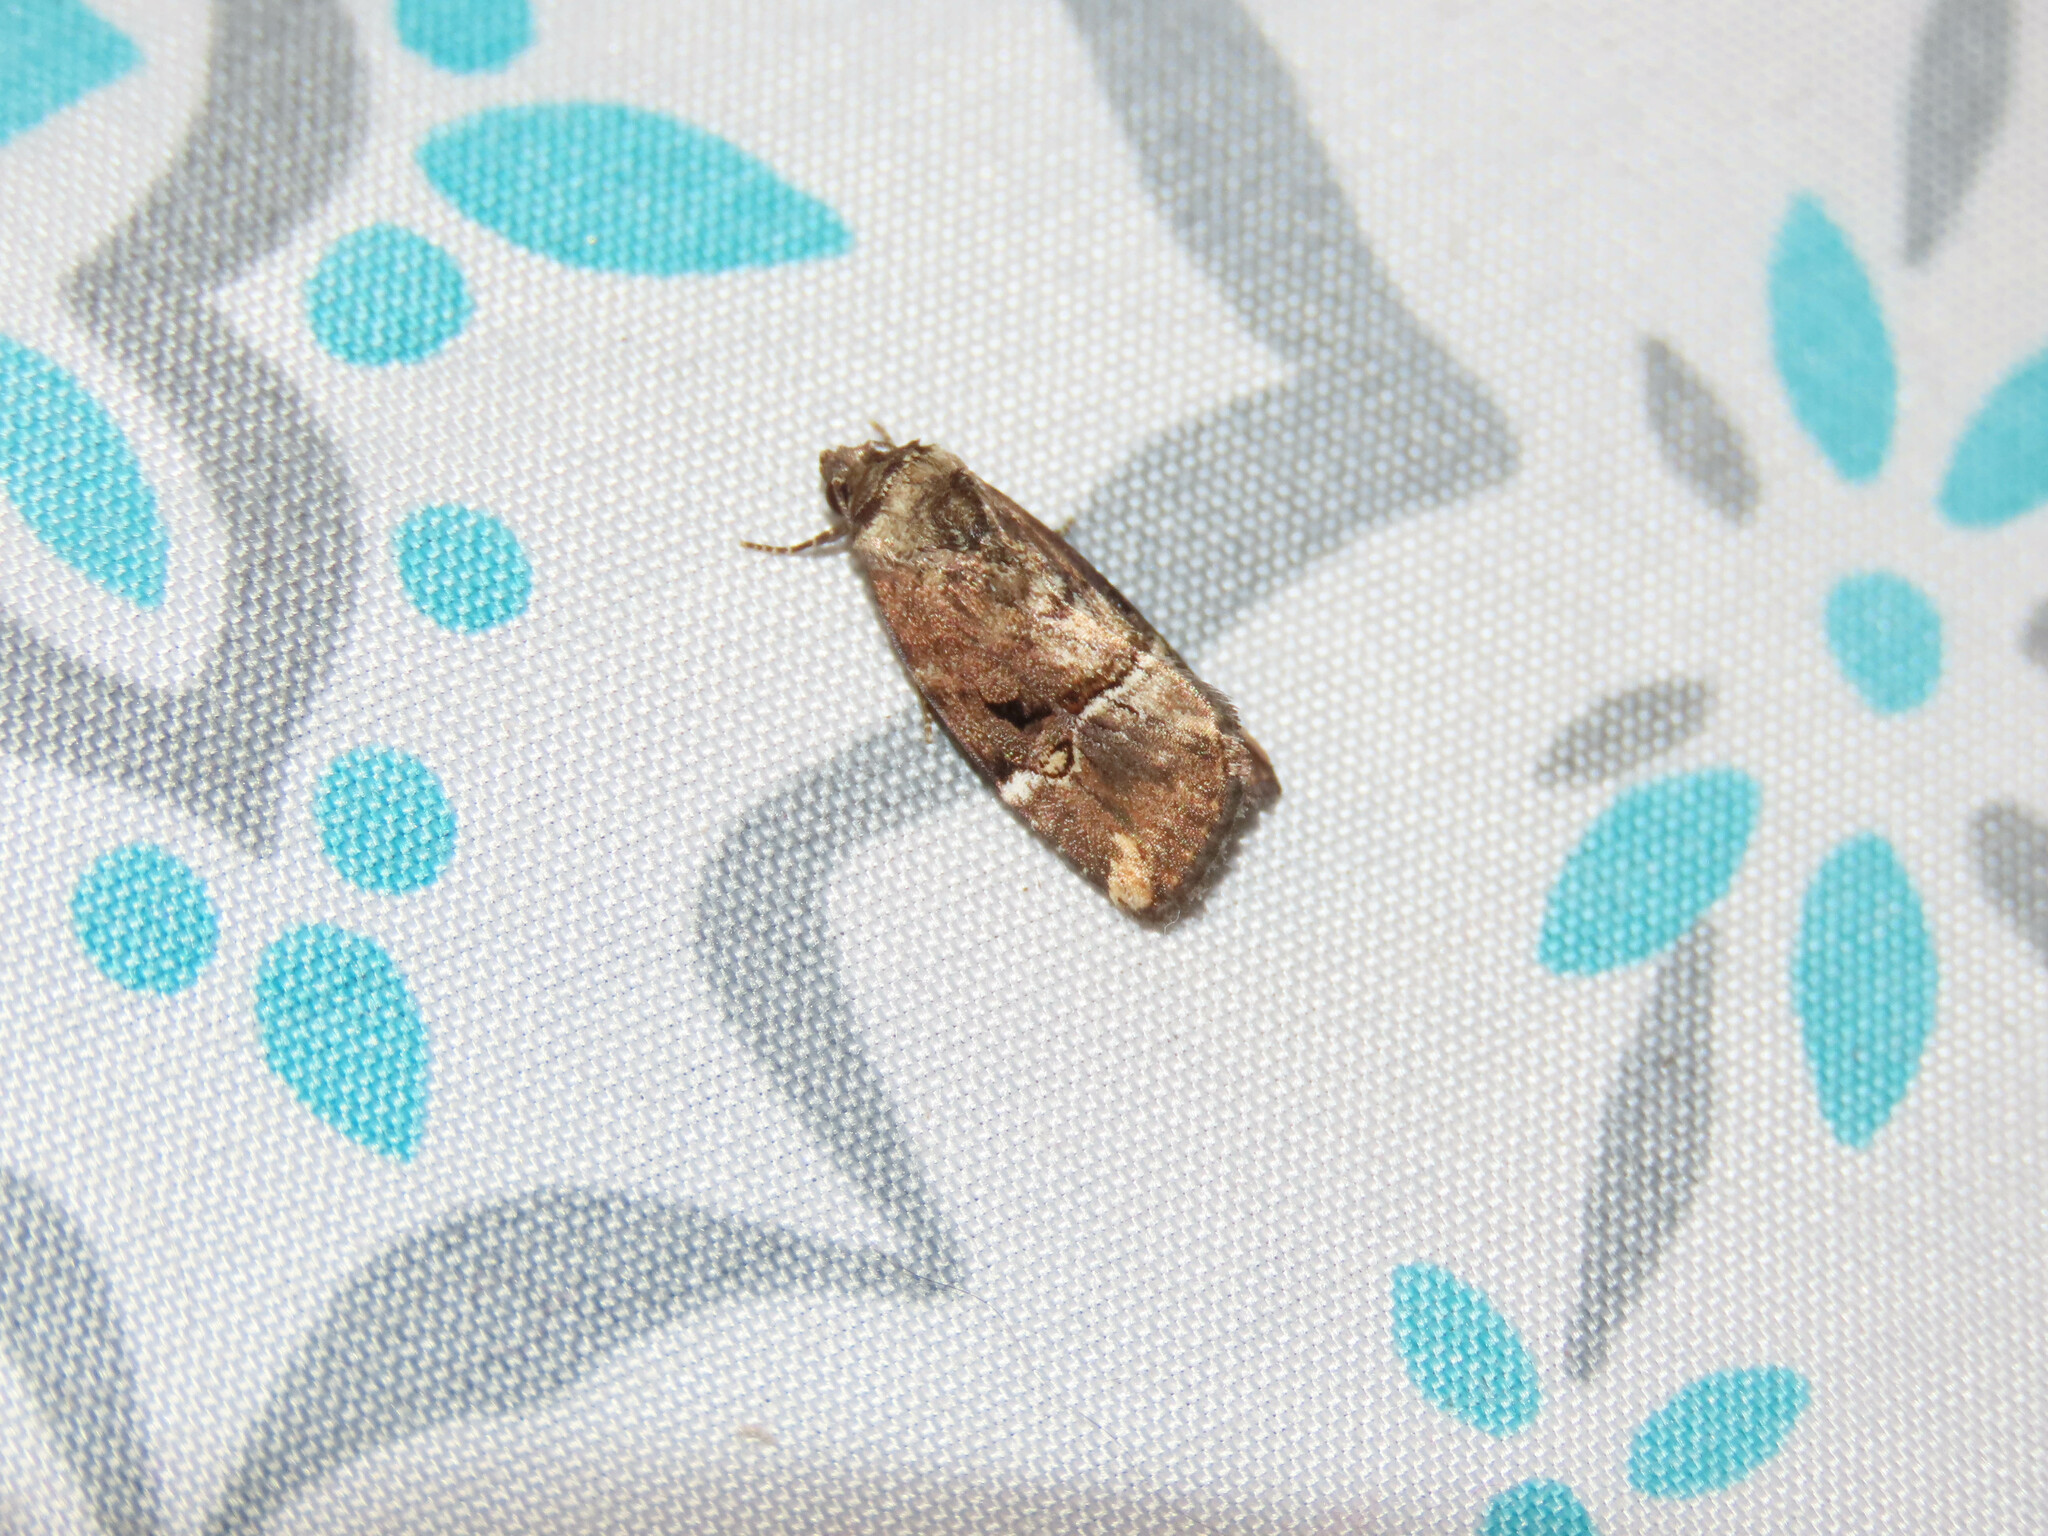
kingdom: Animalia
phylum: Arthropoda
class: Insecta
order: Lepidoptera
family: Noctuidae
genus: Elaphria
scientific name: Elaphria versicolor
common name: Fir harlequin
